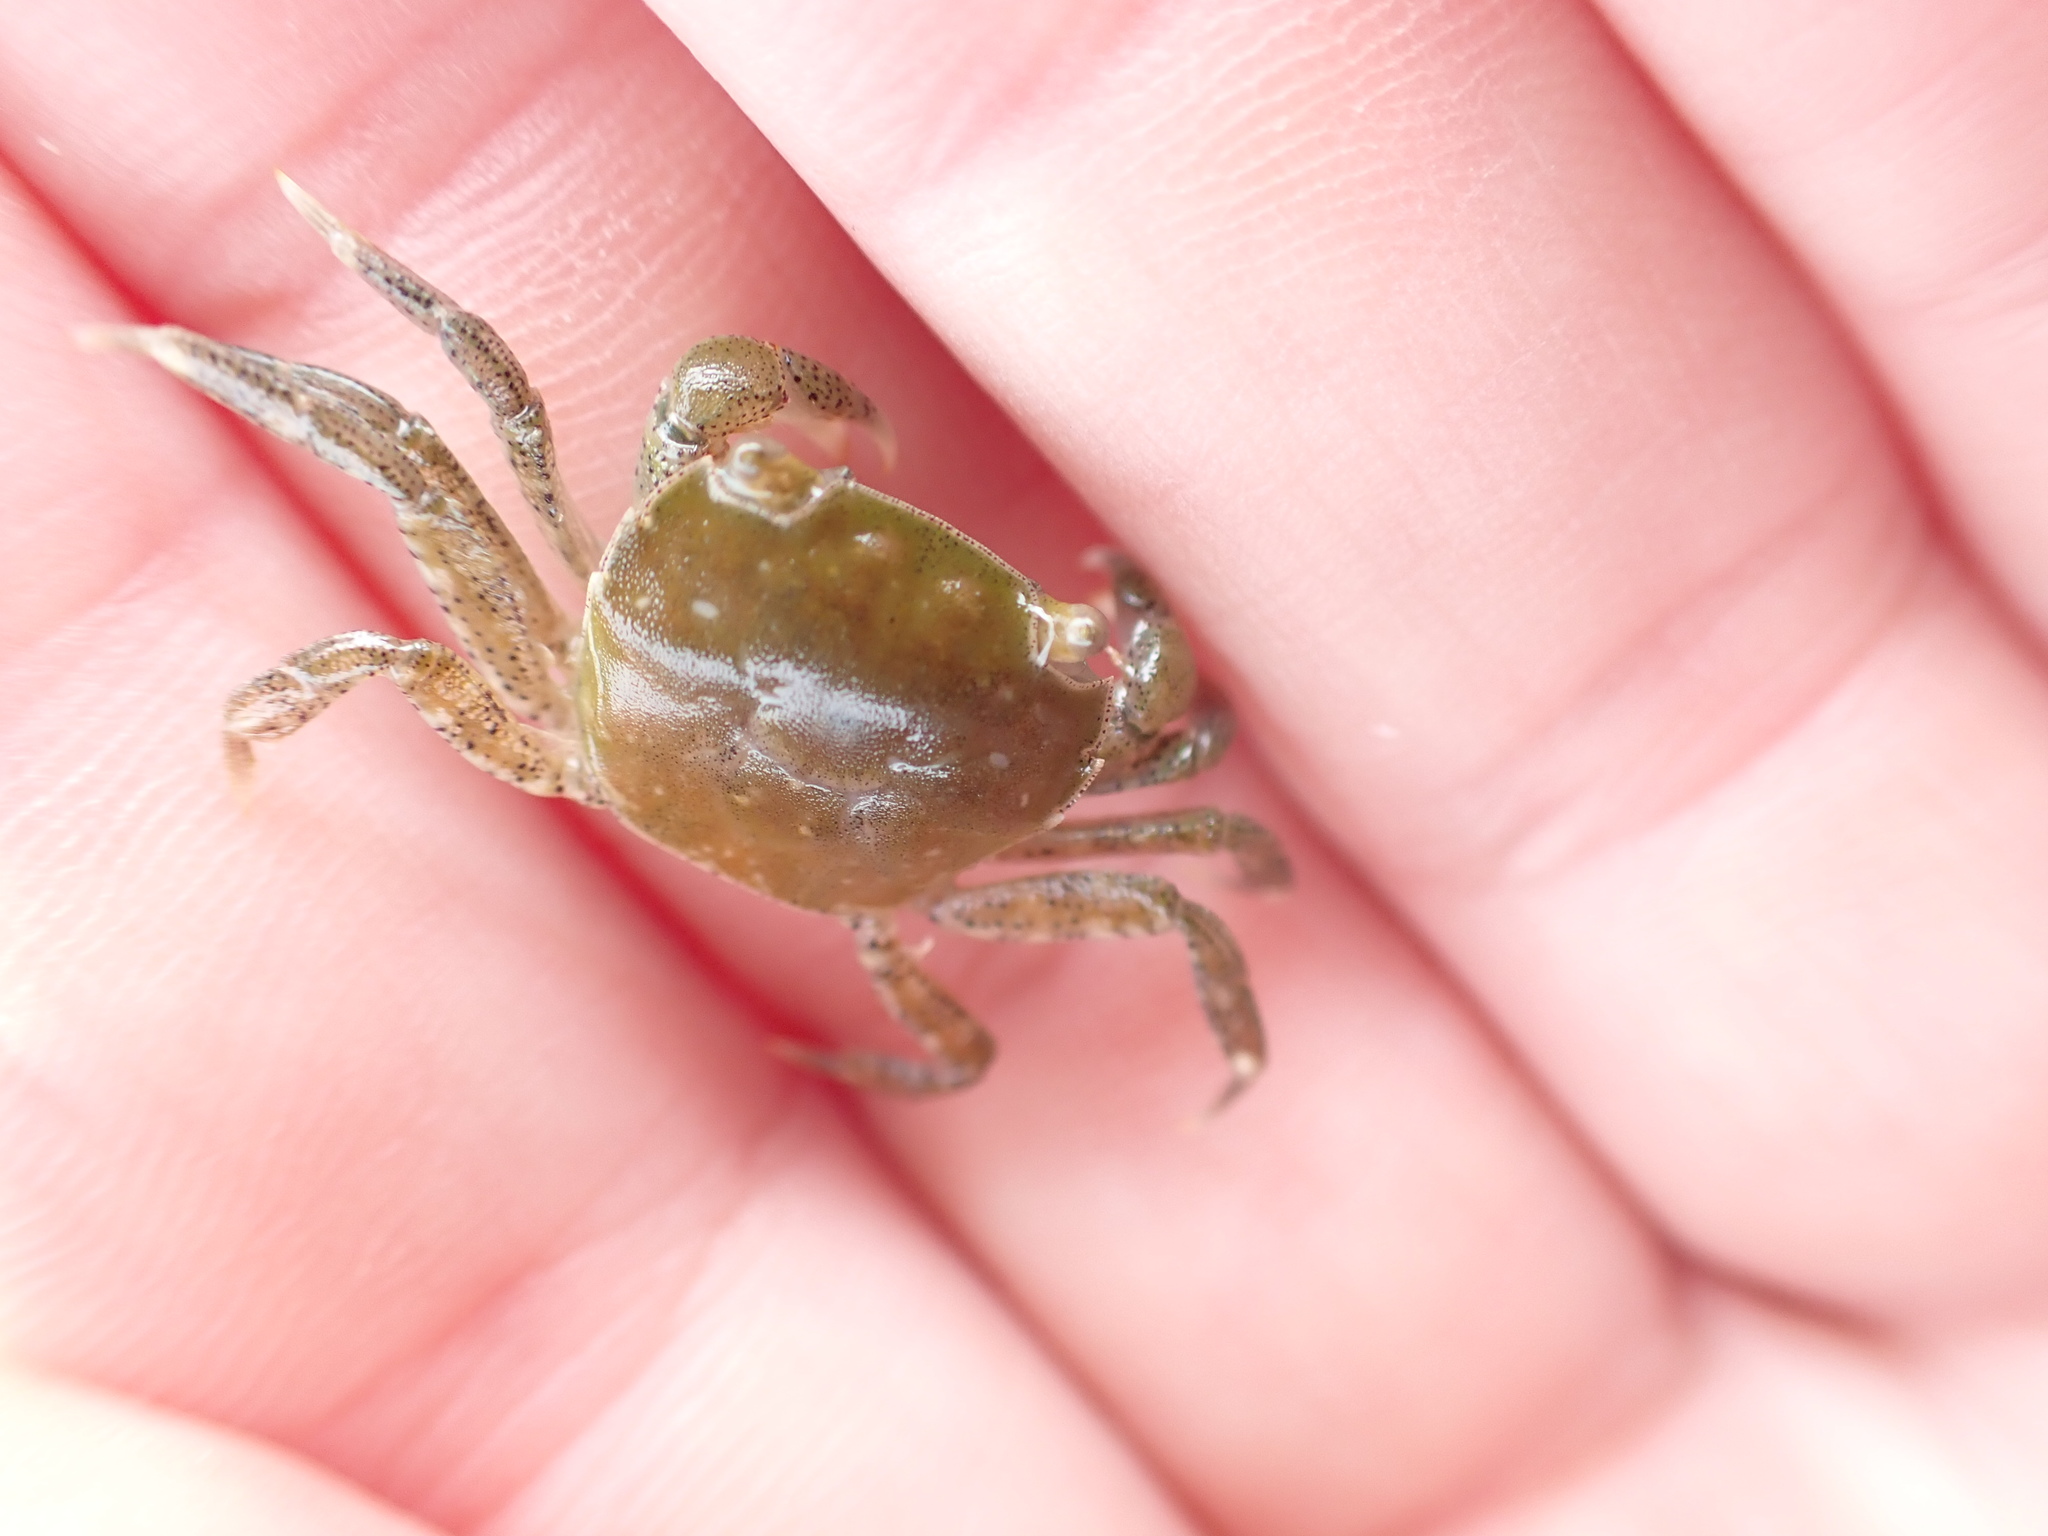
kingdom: Animalia
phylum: Arthropoda
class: Malacostraca
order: Decapoda
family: Varunidae
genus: Hemigrapsus
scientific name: Hemigrapsus crenulatus
